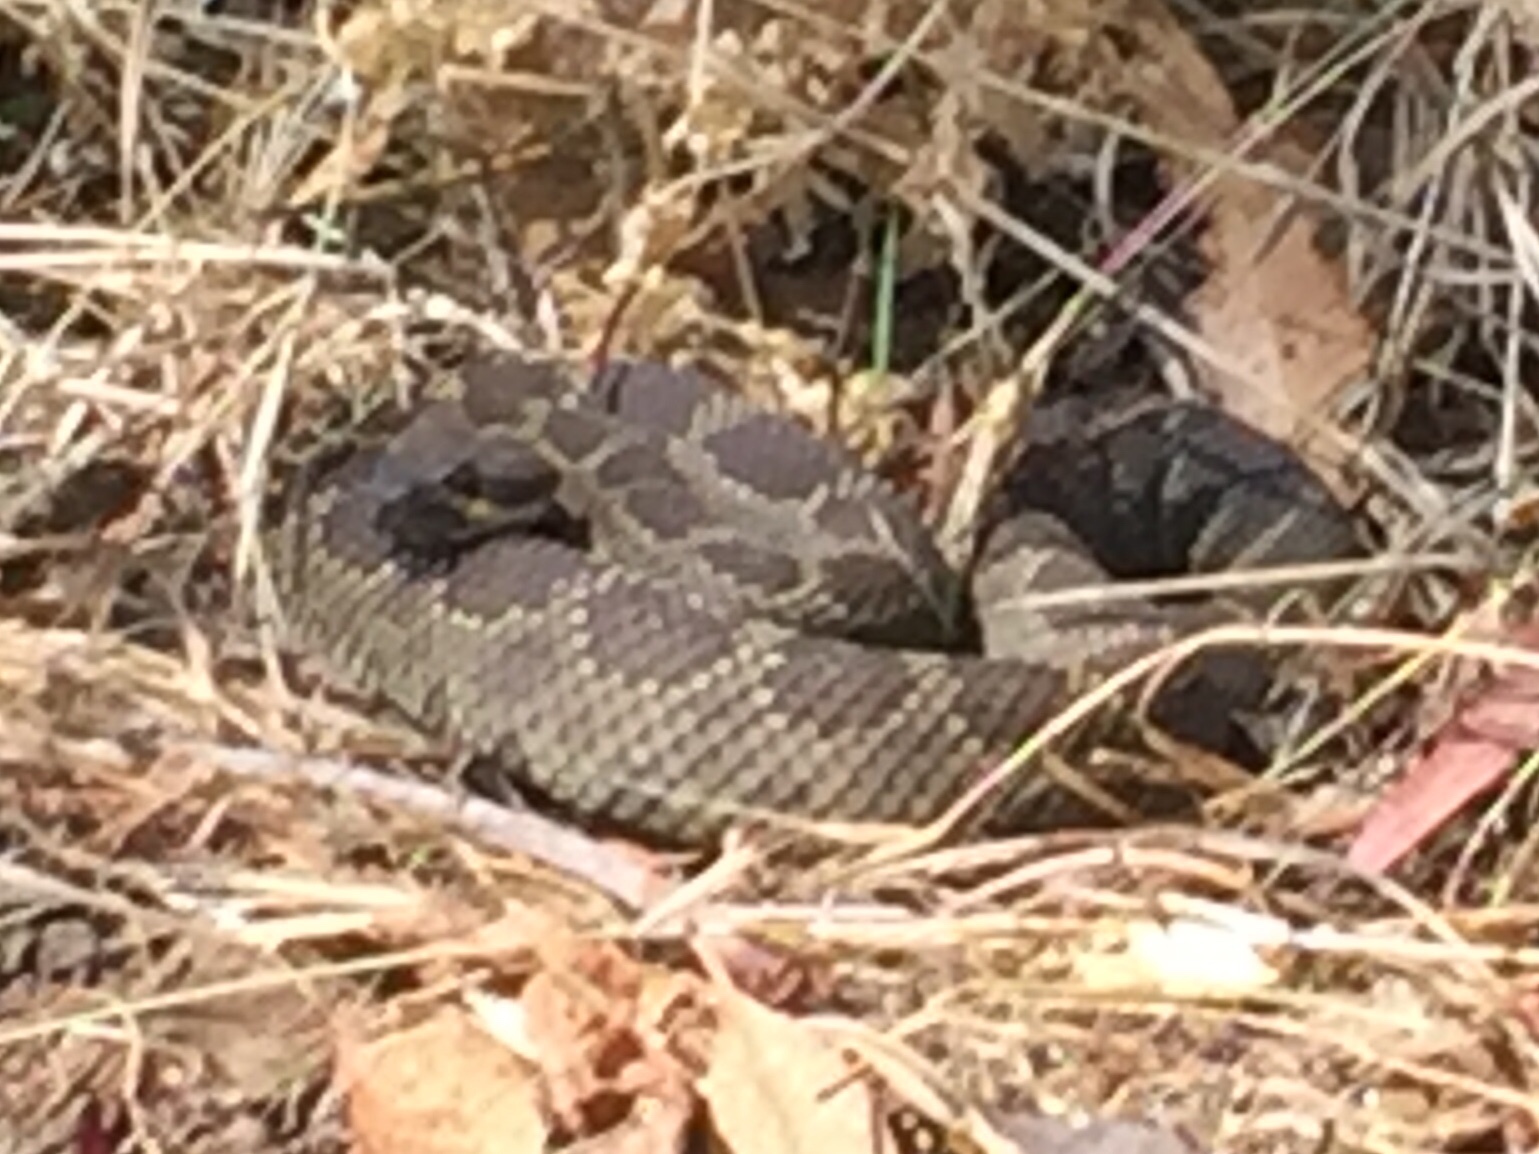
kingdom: Animalia
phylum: Chordata
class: Squamata
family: Viperidae
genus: Crotalus
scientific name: Crotalus oreganus
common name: Abyssus
